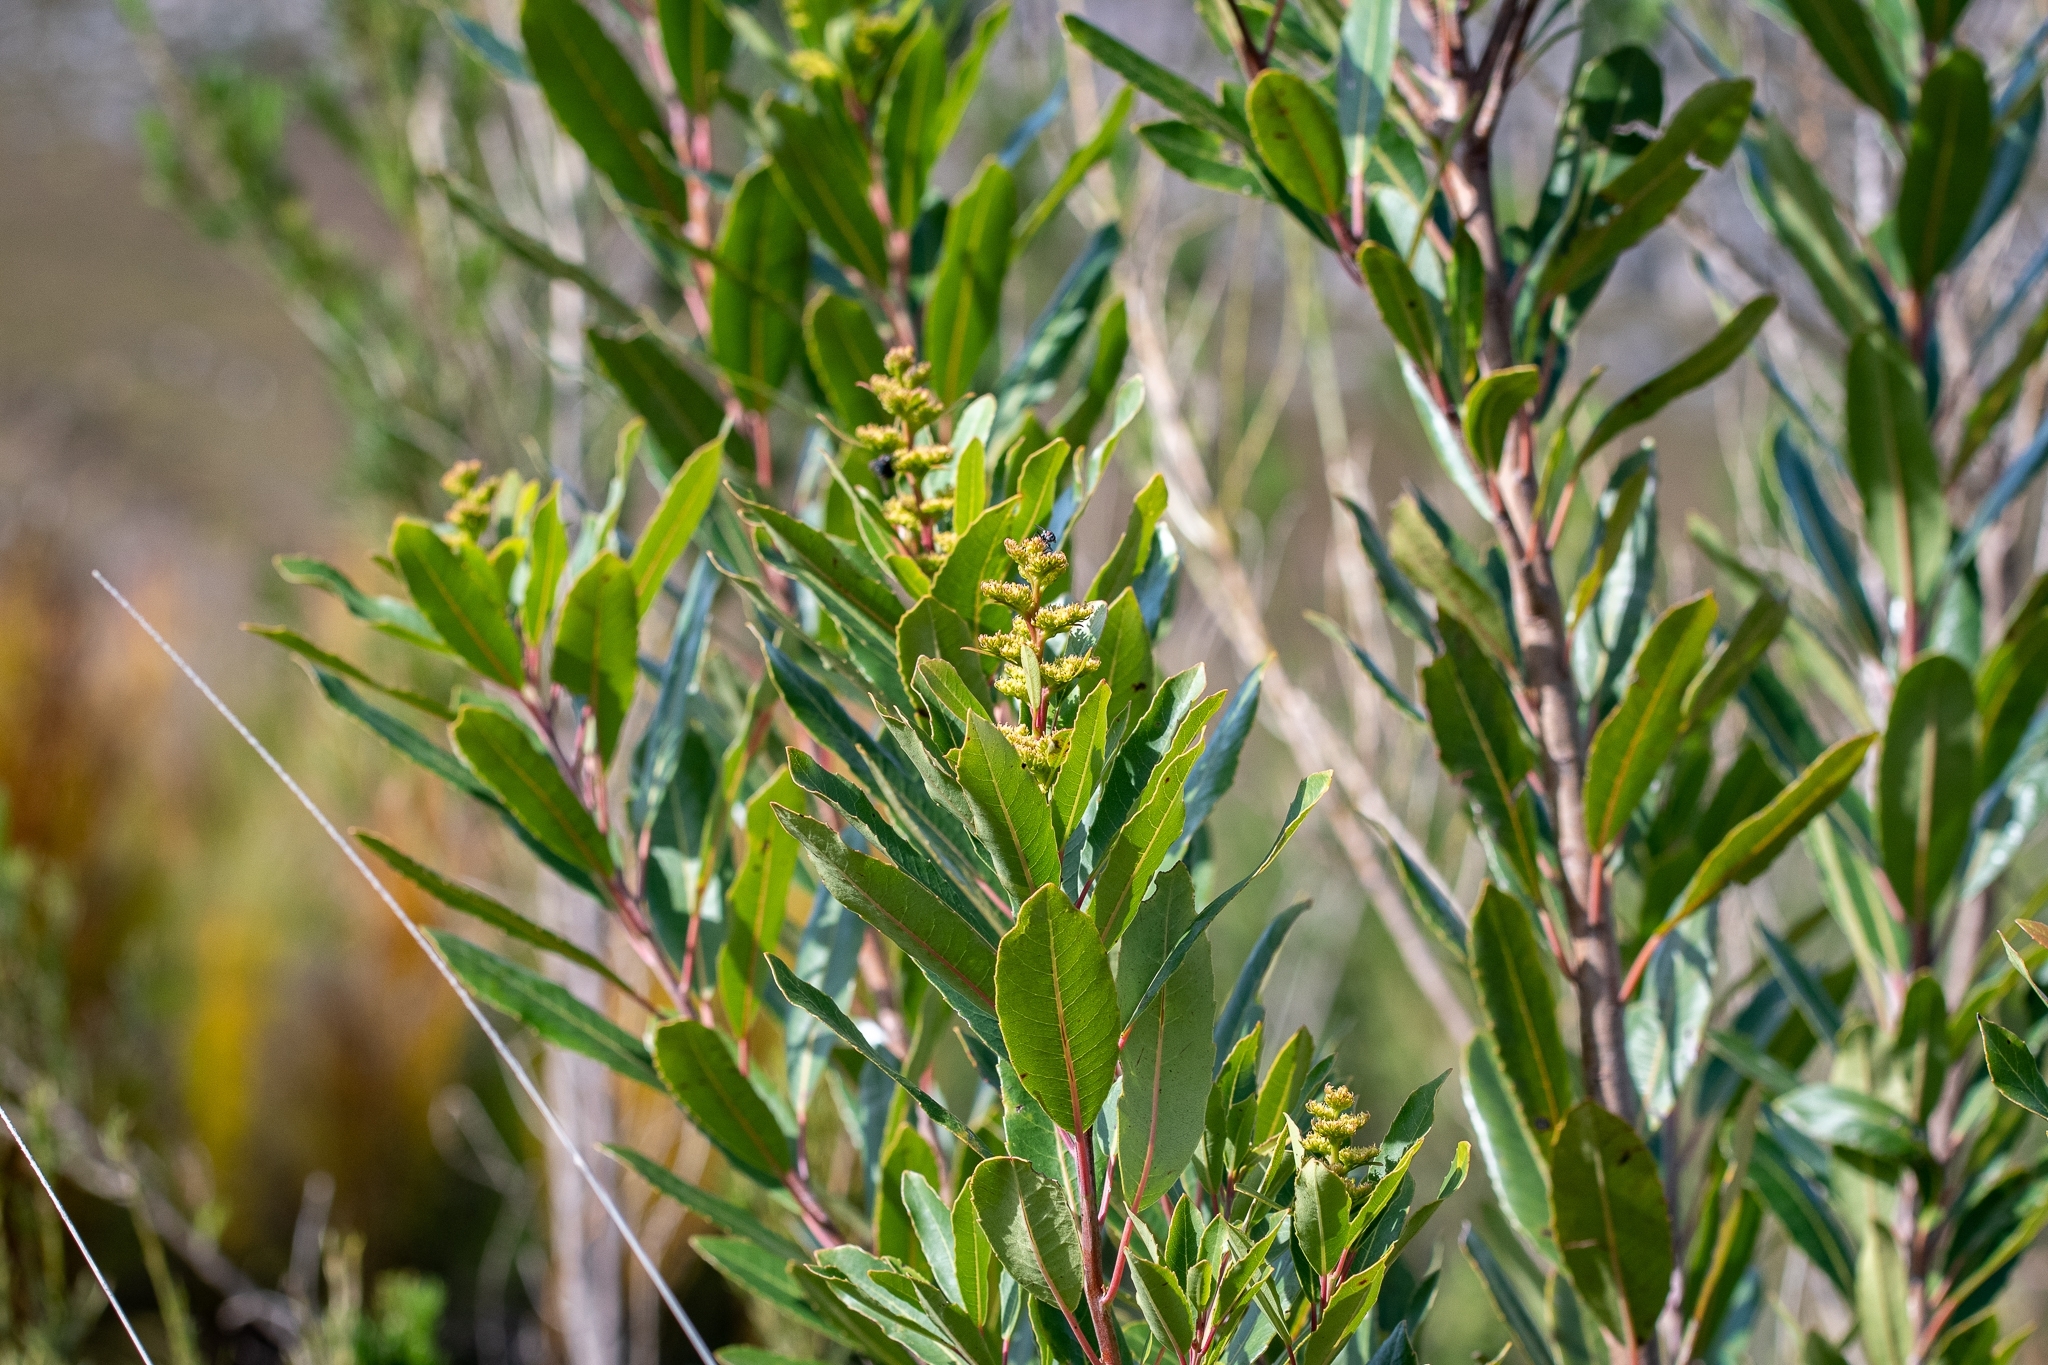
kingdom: Plantae
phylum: Tracheophyta
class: Magnoliopsida
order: Sapindales
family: Anacardiaceae
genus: Laurophyllus
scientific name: Laurophyllus capensis
